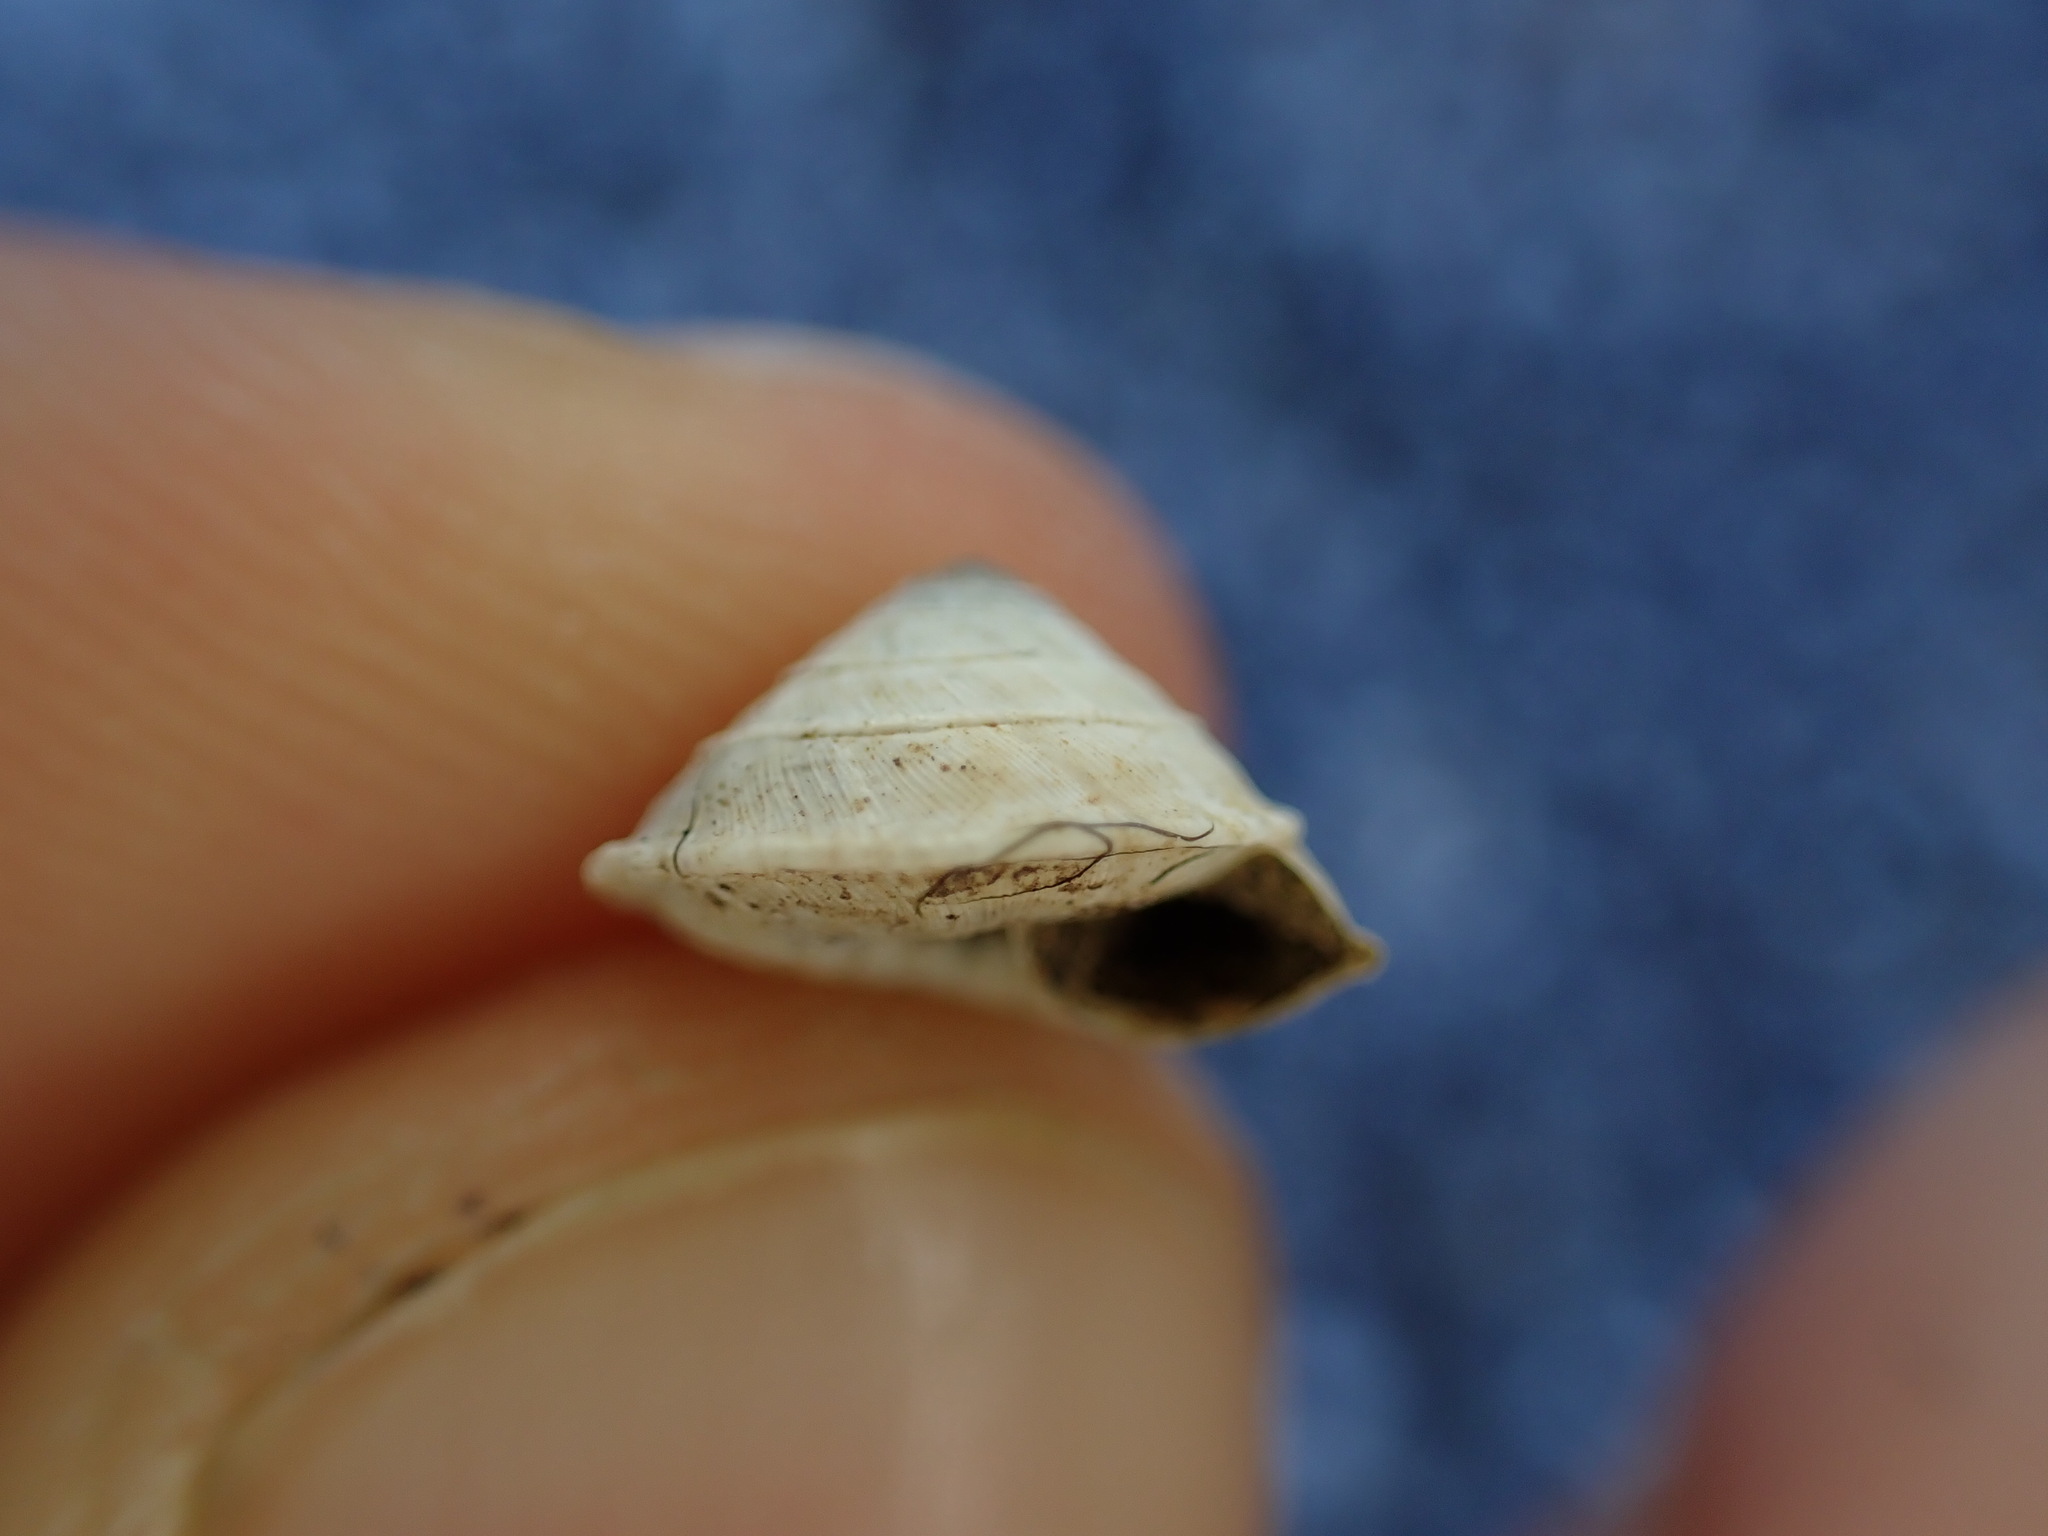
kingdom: Animalia
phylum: Mollusca
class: Gastropoda
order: Stylommatophora
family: Geomitridae
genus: Trochoidea
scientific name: Trochoidea elegans
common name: Elegant helicellid
